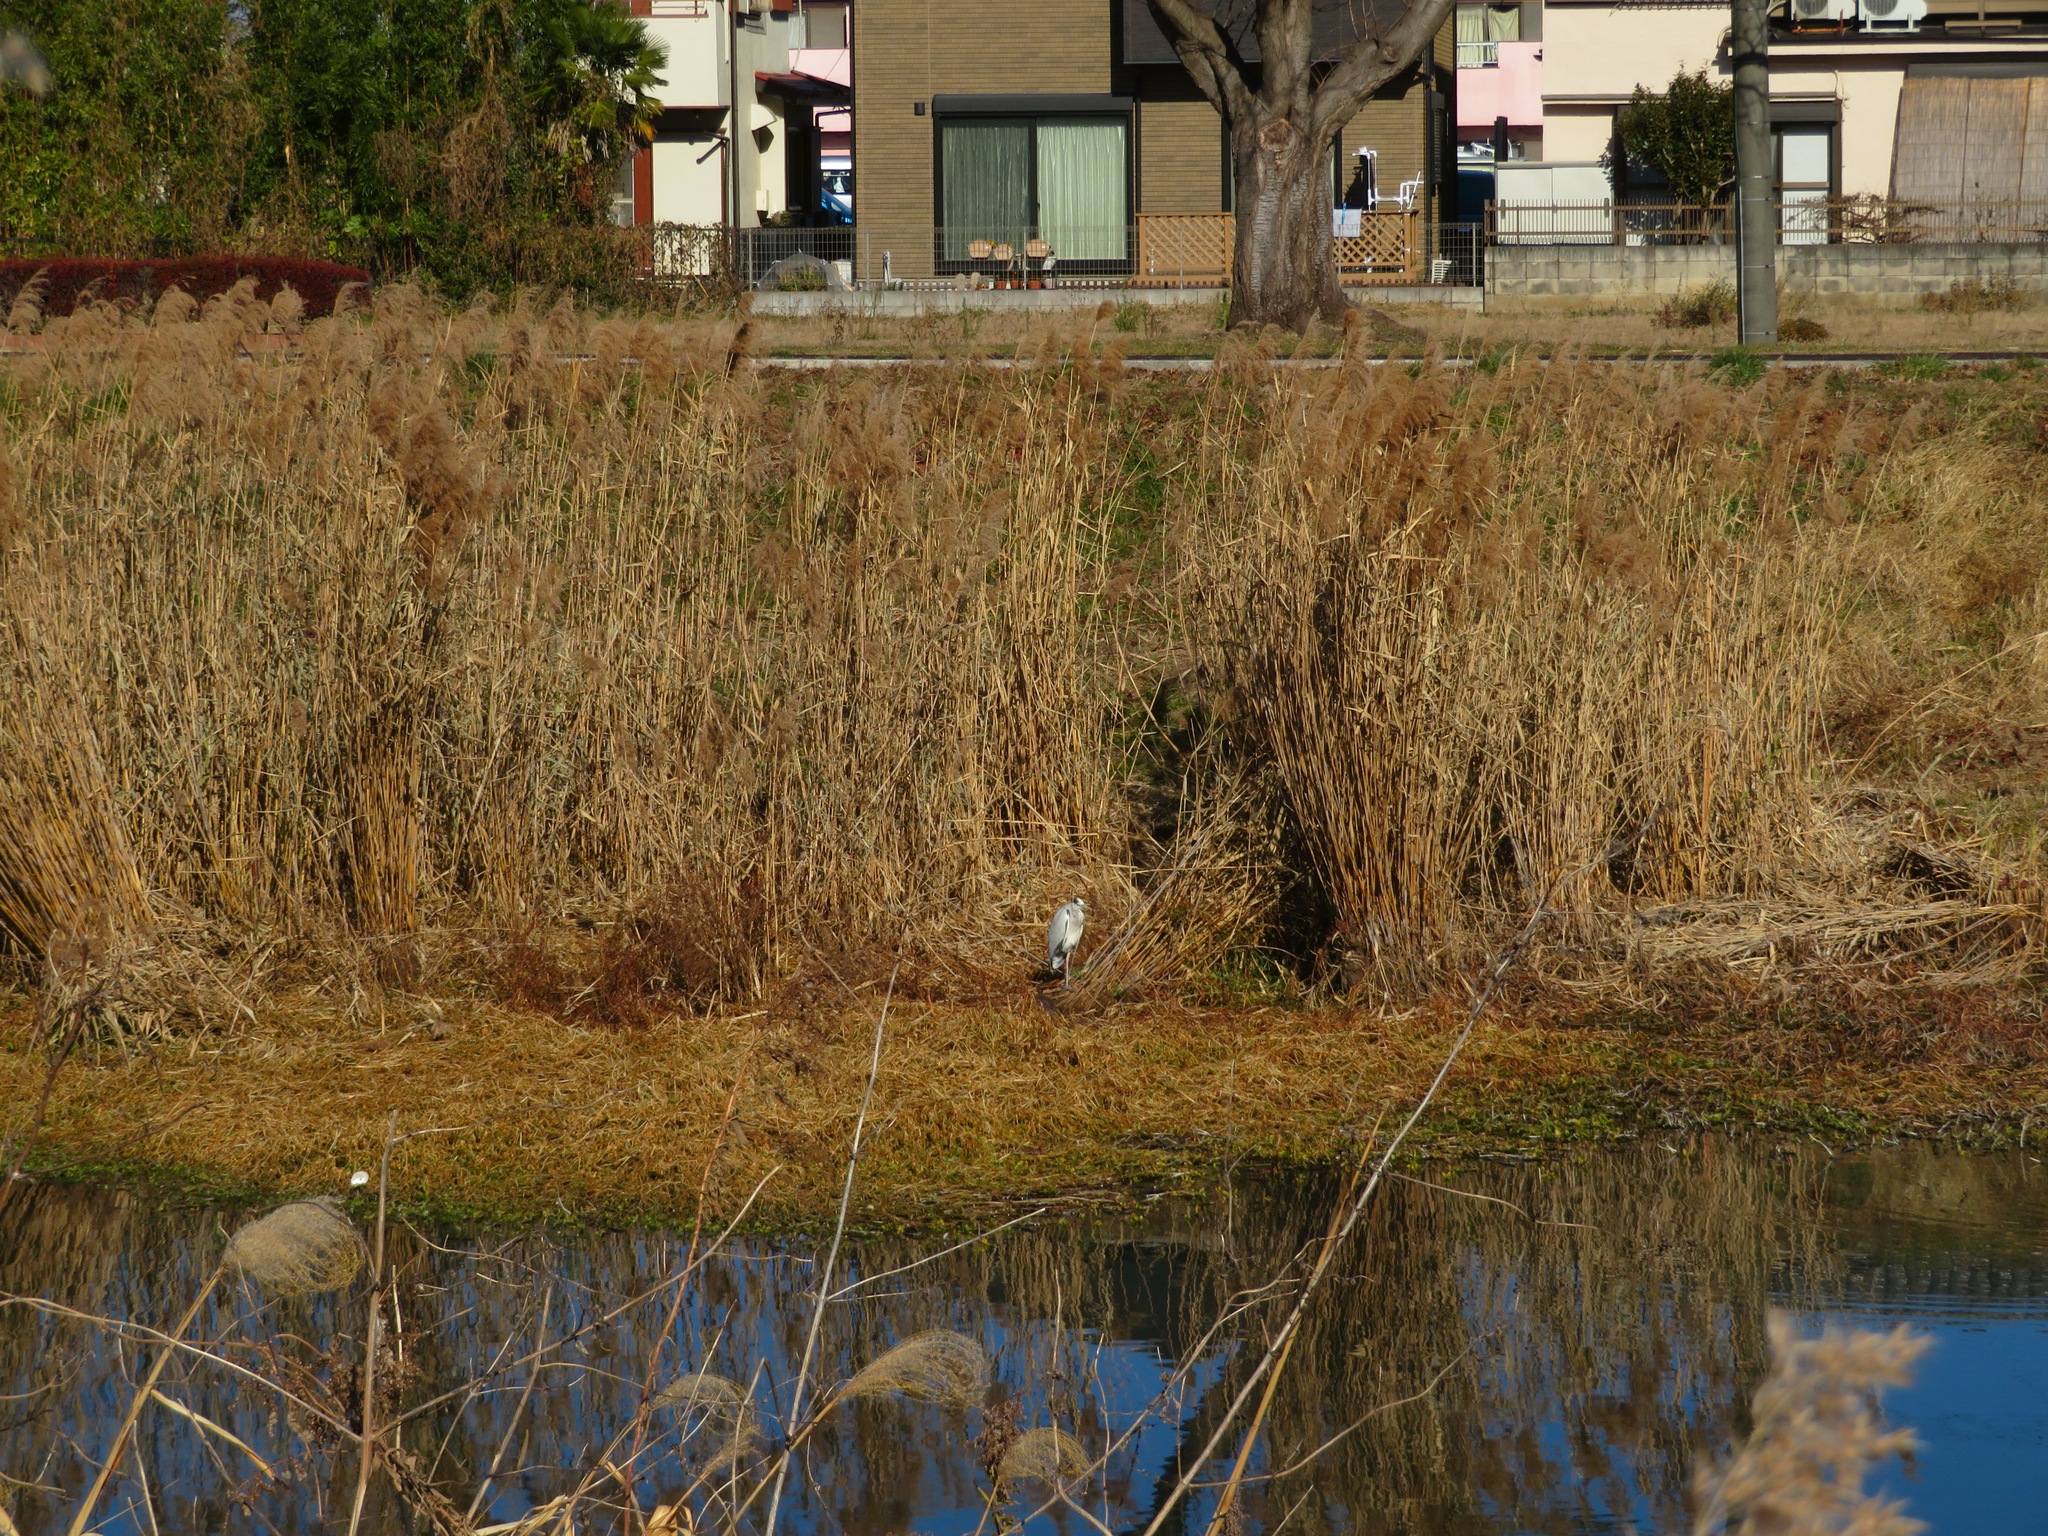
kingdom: Animalia
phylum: Chordata
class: Aves
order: Pelecaniformes
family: Ardeidae
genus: Ardea
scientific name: Ardea cinerea
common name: Grey heron
